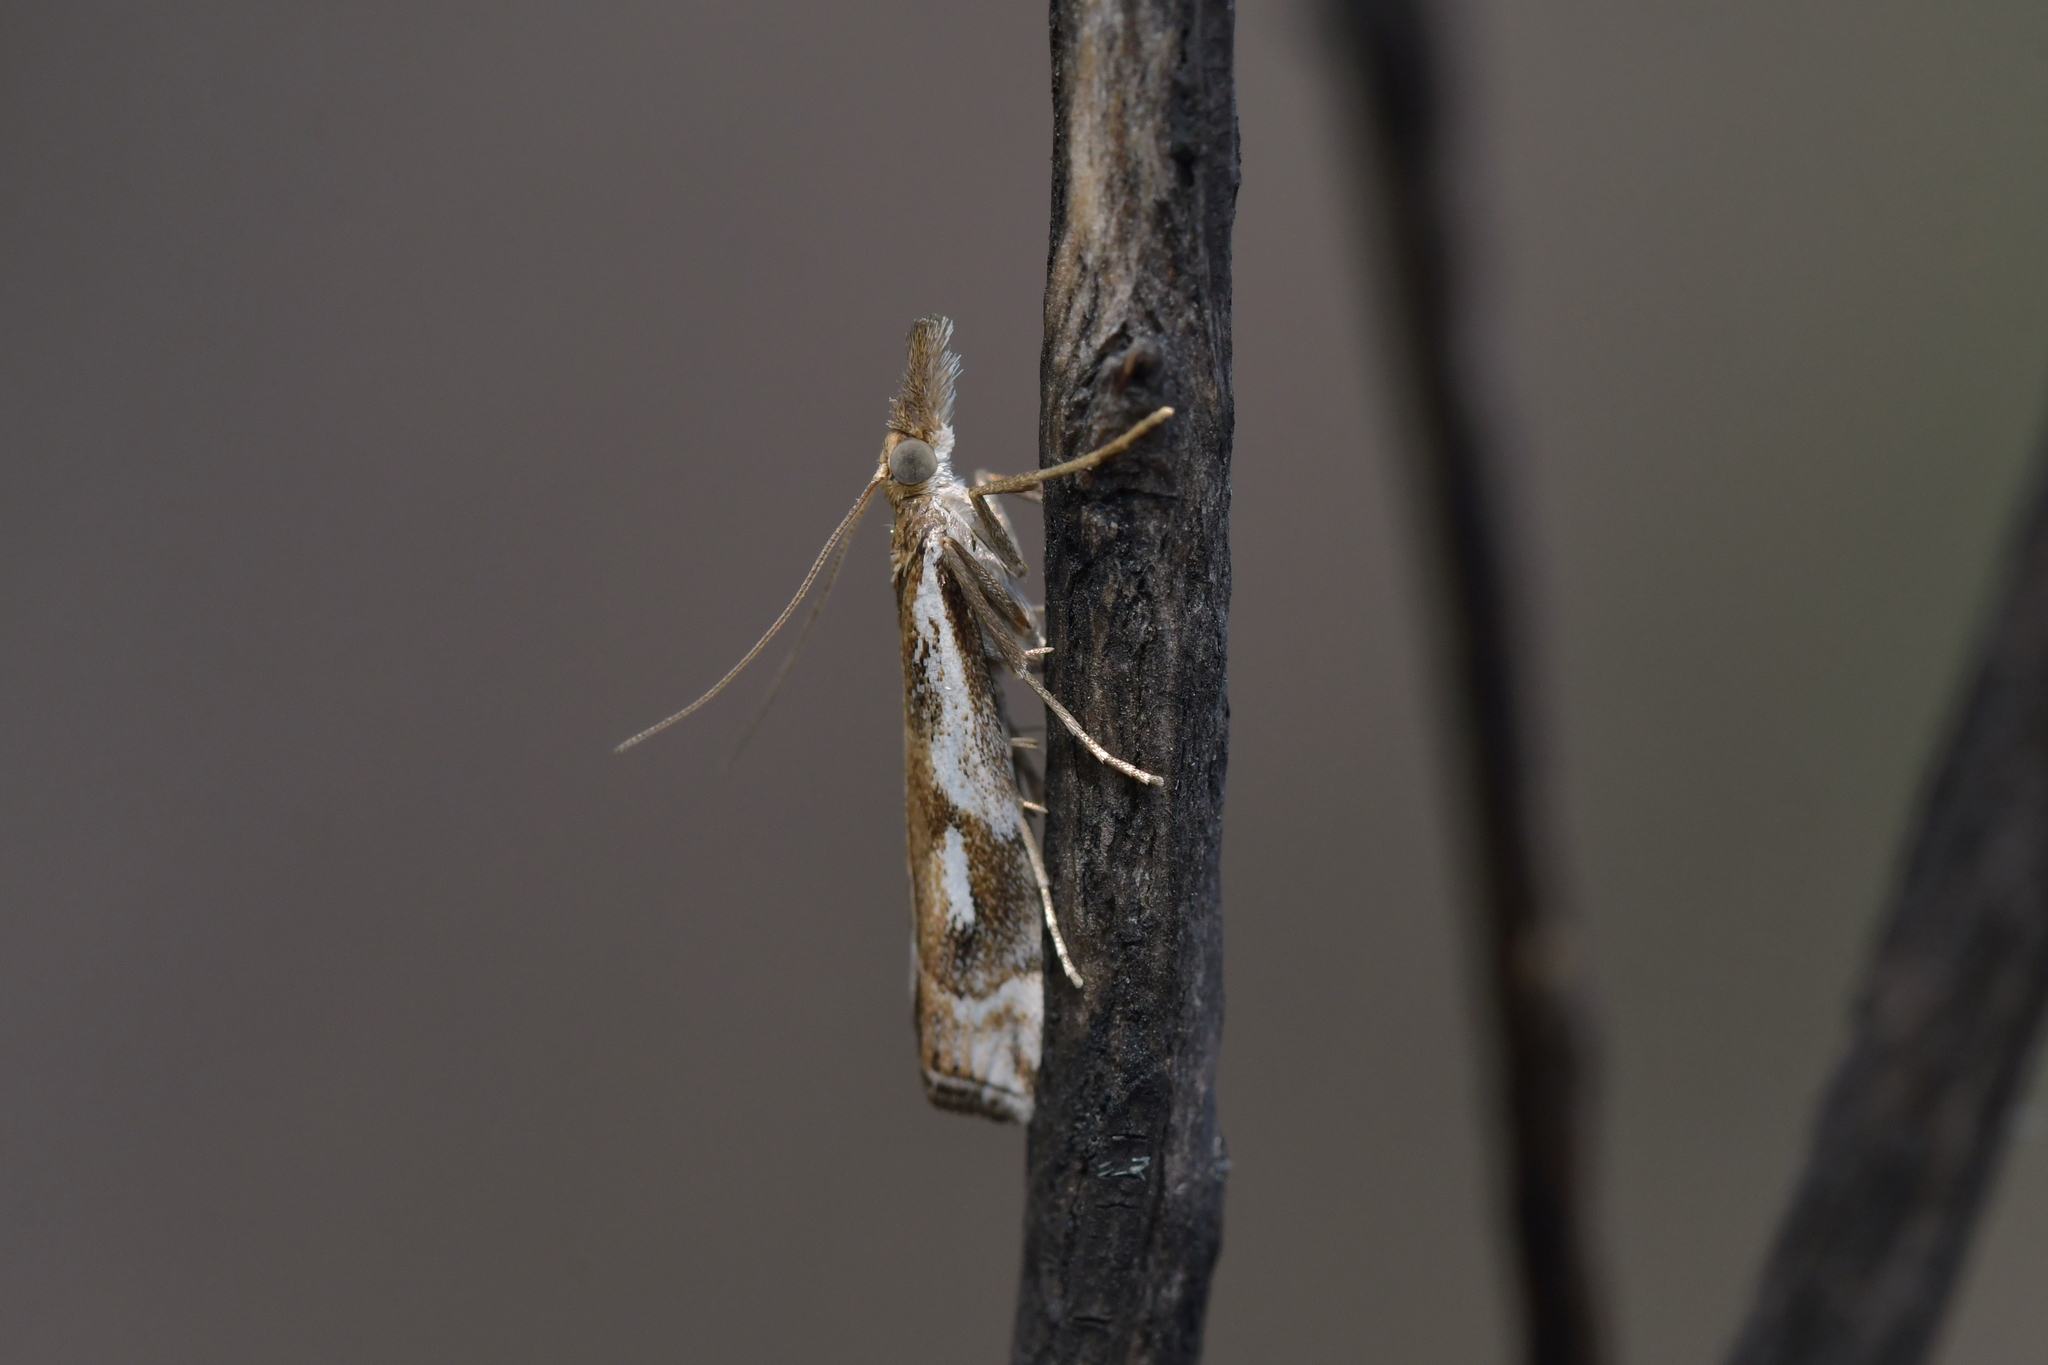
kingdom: Animalia
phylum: Arthropoda
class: Insecta
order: Lepidoptera
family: Crambidae
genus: Orocrambus
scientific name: Orocrambus vulgaris
